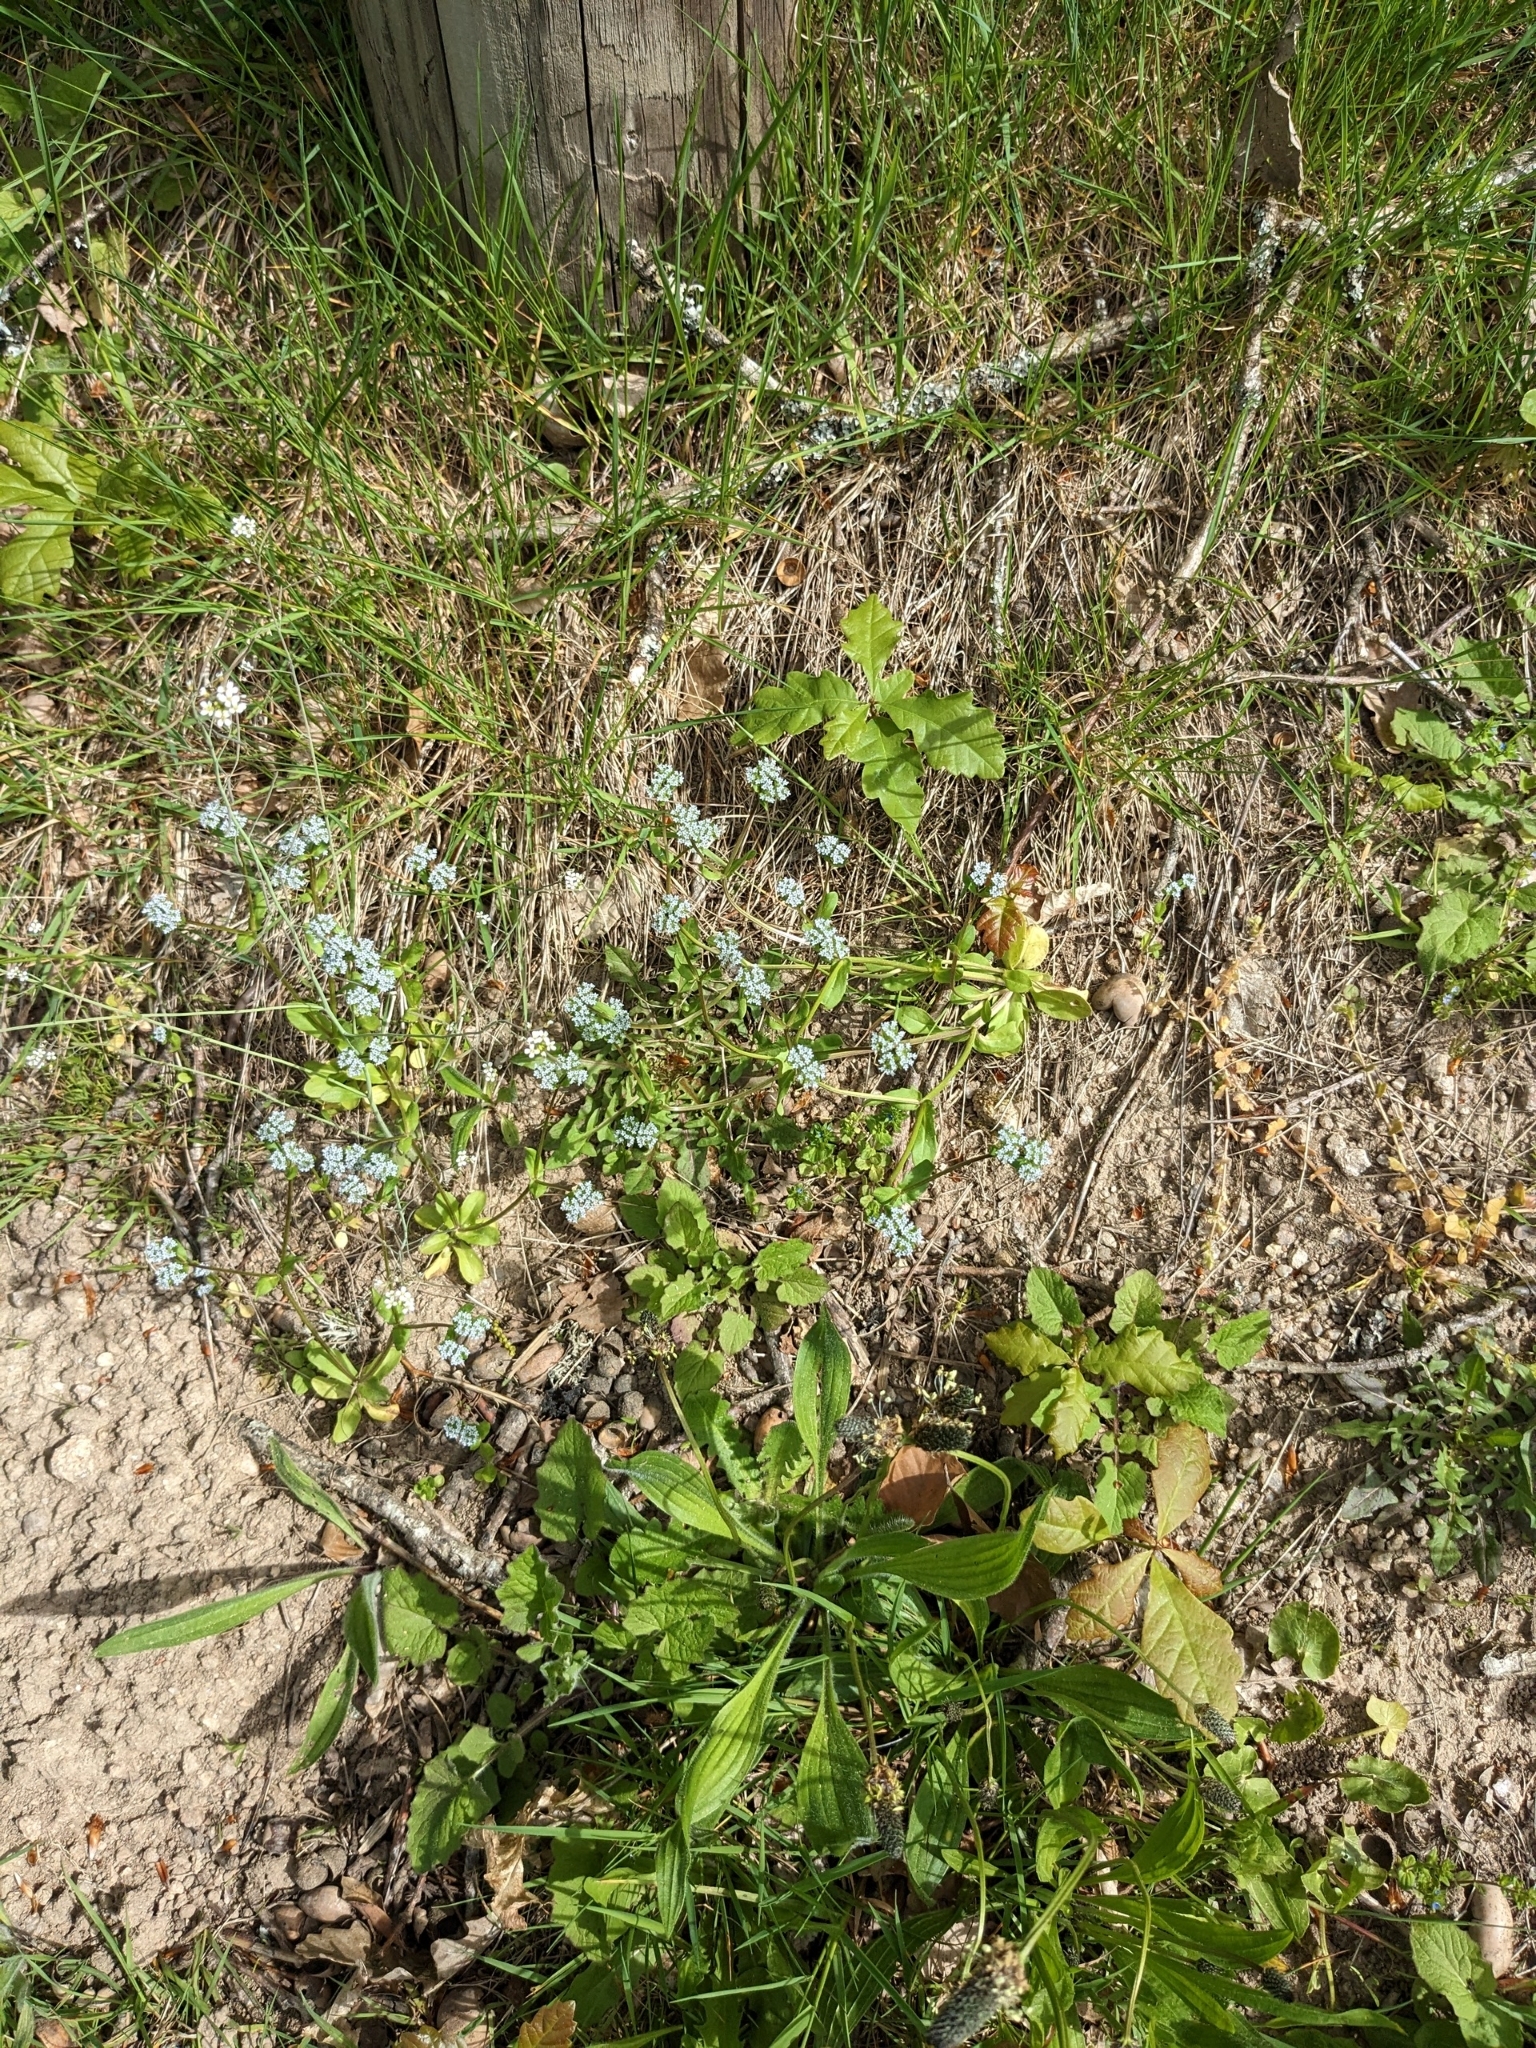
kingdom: Plantae
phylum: Tracheophyta
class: Magnoliopsida
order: Dipsacales
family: Caprifoliaceae
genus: Valerianella
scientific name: Valerianella locusta
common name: Common cornsalad
